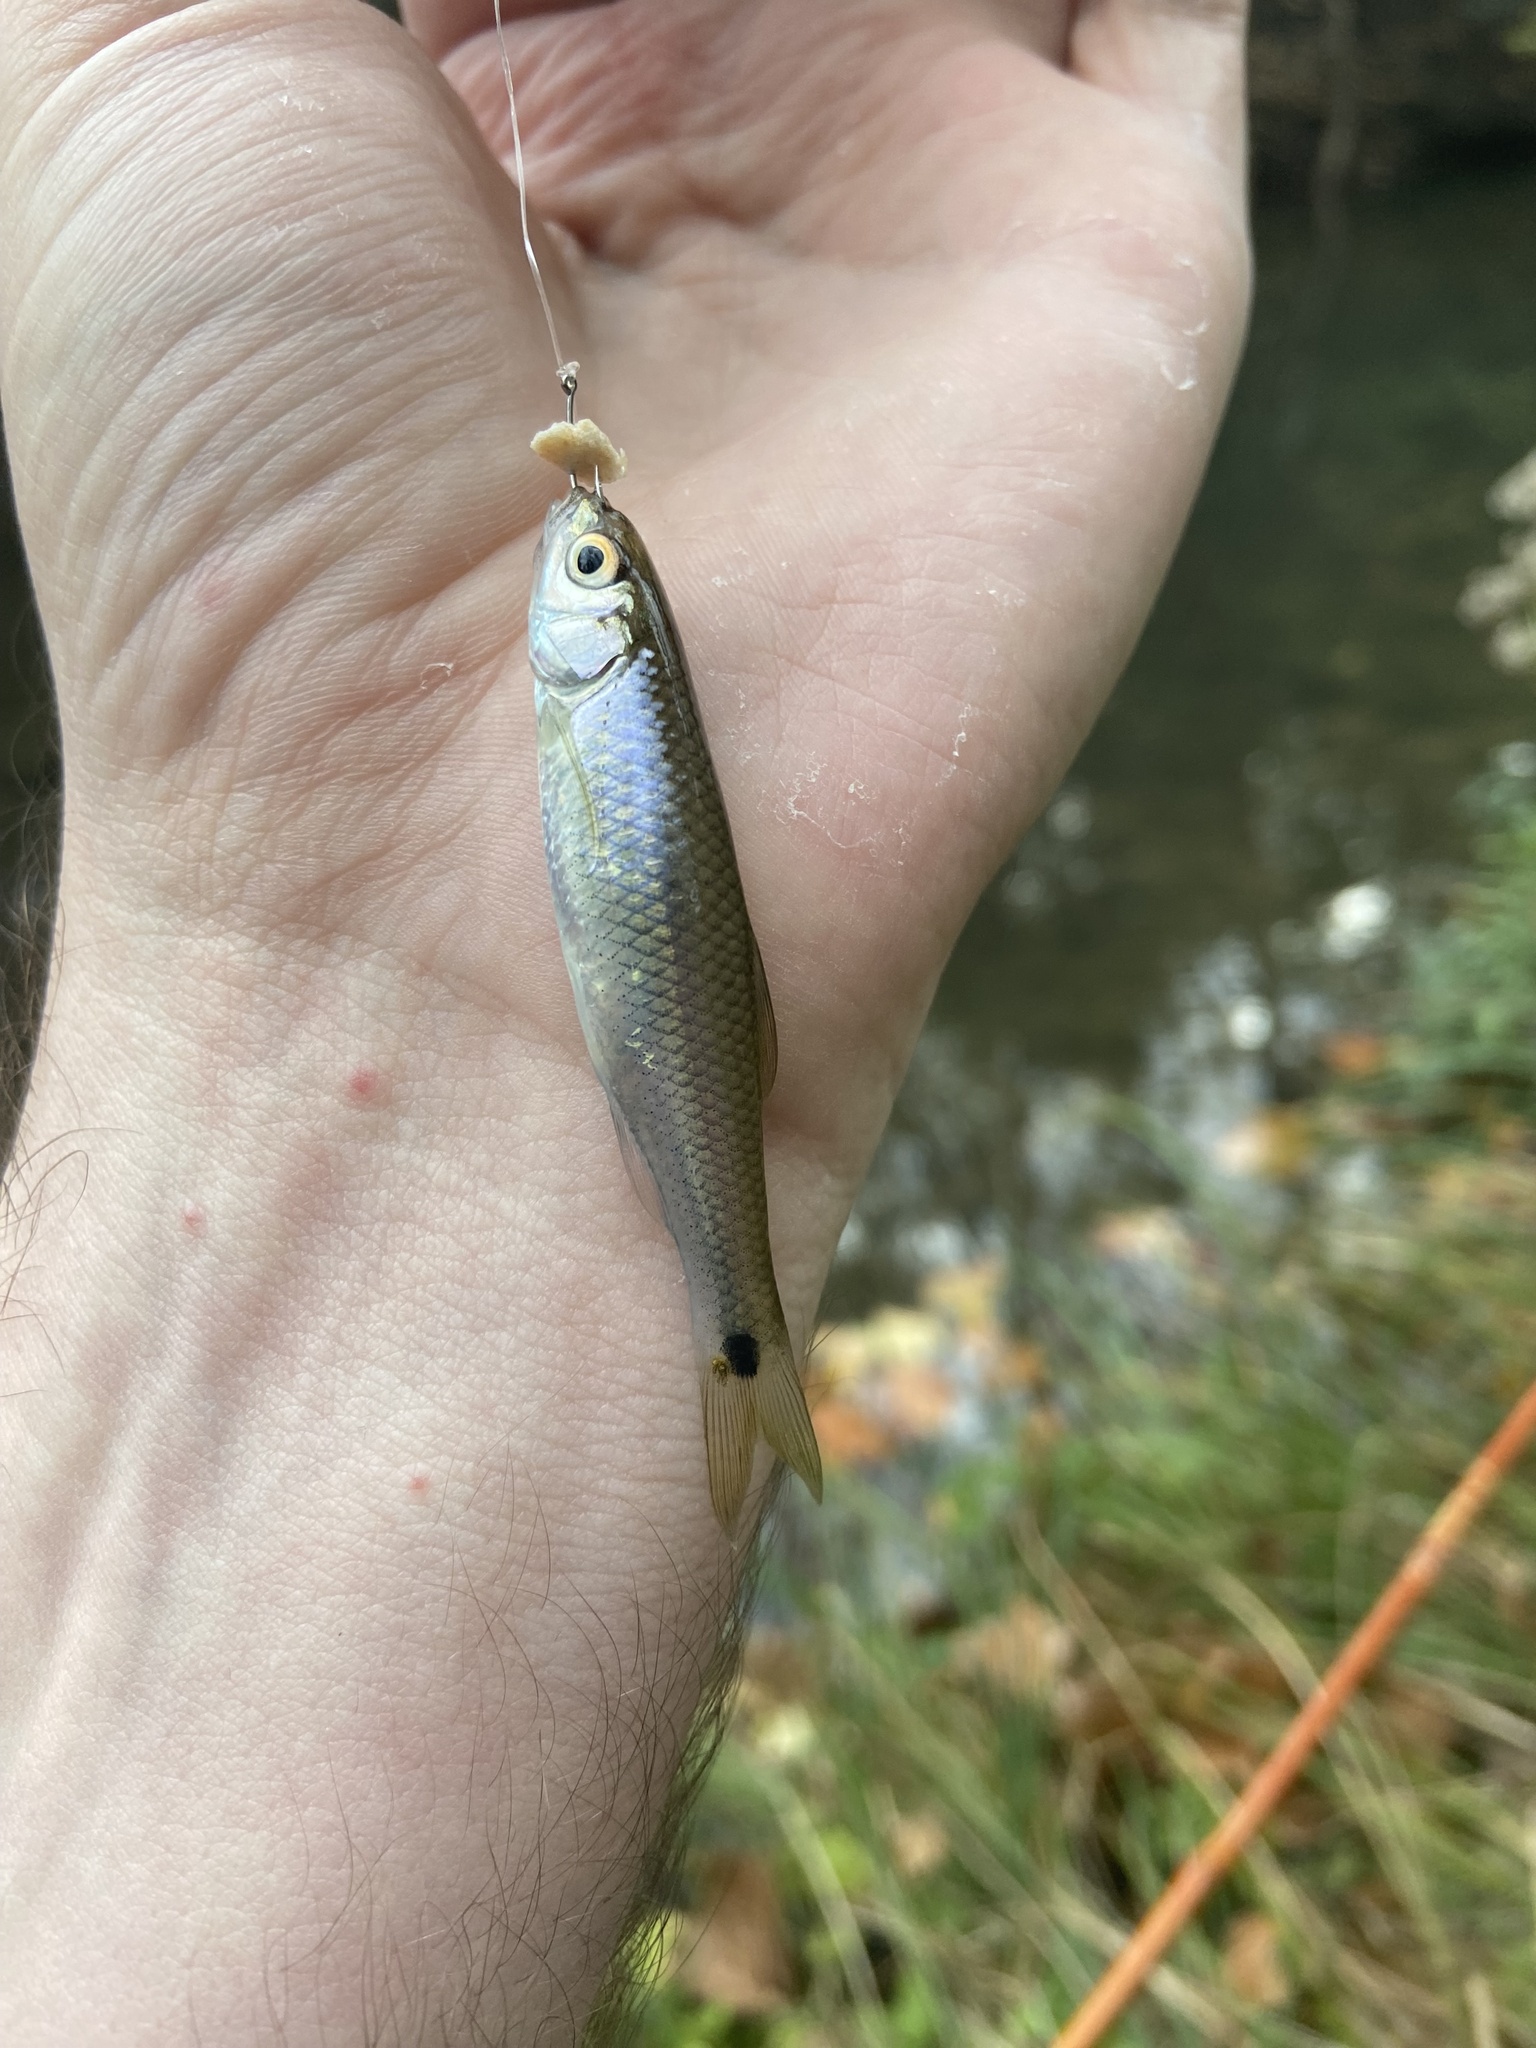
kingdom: Animalia
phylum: Chordata
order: Cypriniformes
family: Cyprinidae
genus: Cyprinella
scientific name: Cyprinella venusta
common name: Blacktail shiner
